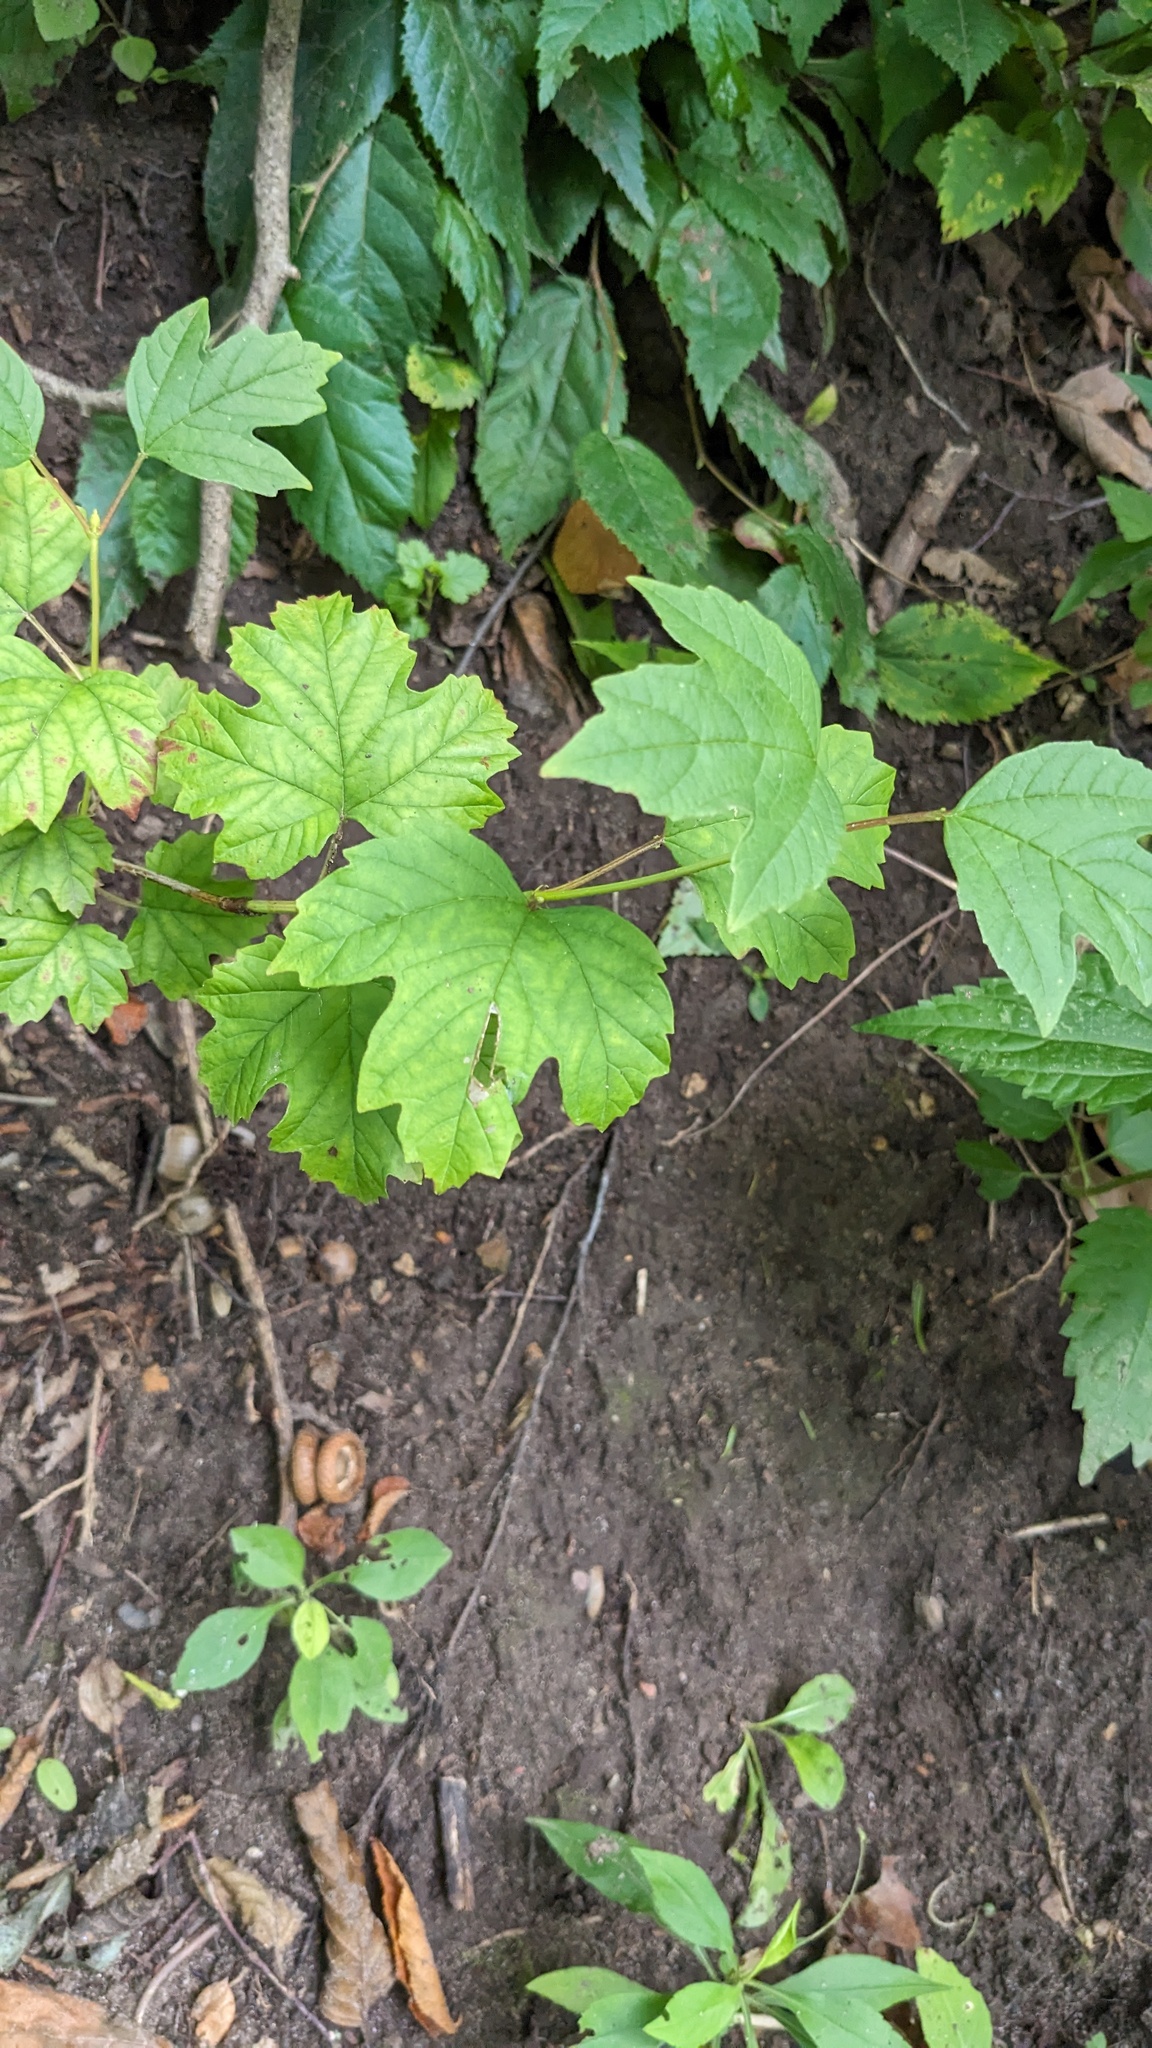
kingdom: Plantae
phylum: Tracheophyta
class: Magnoliopsida
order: Dipsacales
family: Viburnaceae
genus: Viburnum
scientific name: Viburnum opulus
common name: Guelder-rose
